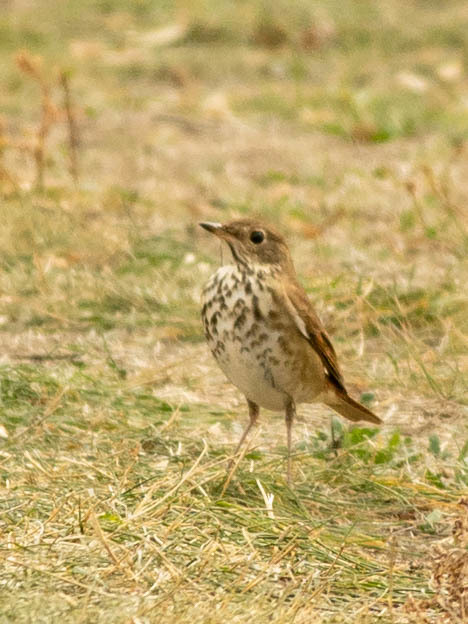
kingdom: Animalia
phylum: Chordata
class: Aves
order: Passeriformes
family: Turdidae
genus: Catharus
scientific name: Catharus guttatus
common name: Hermit thrush
